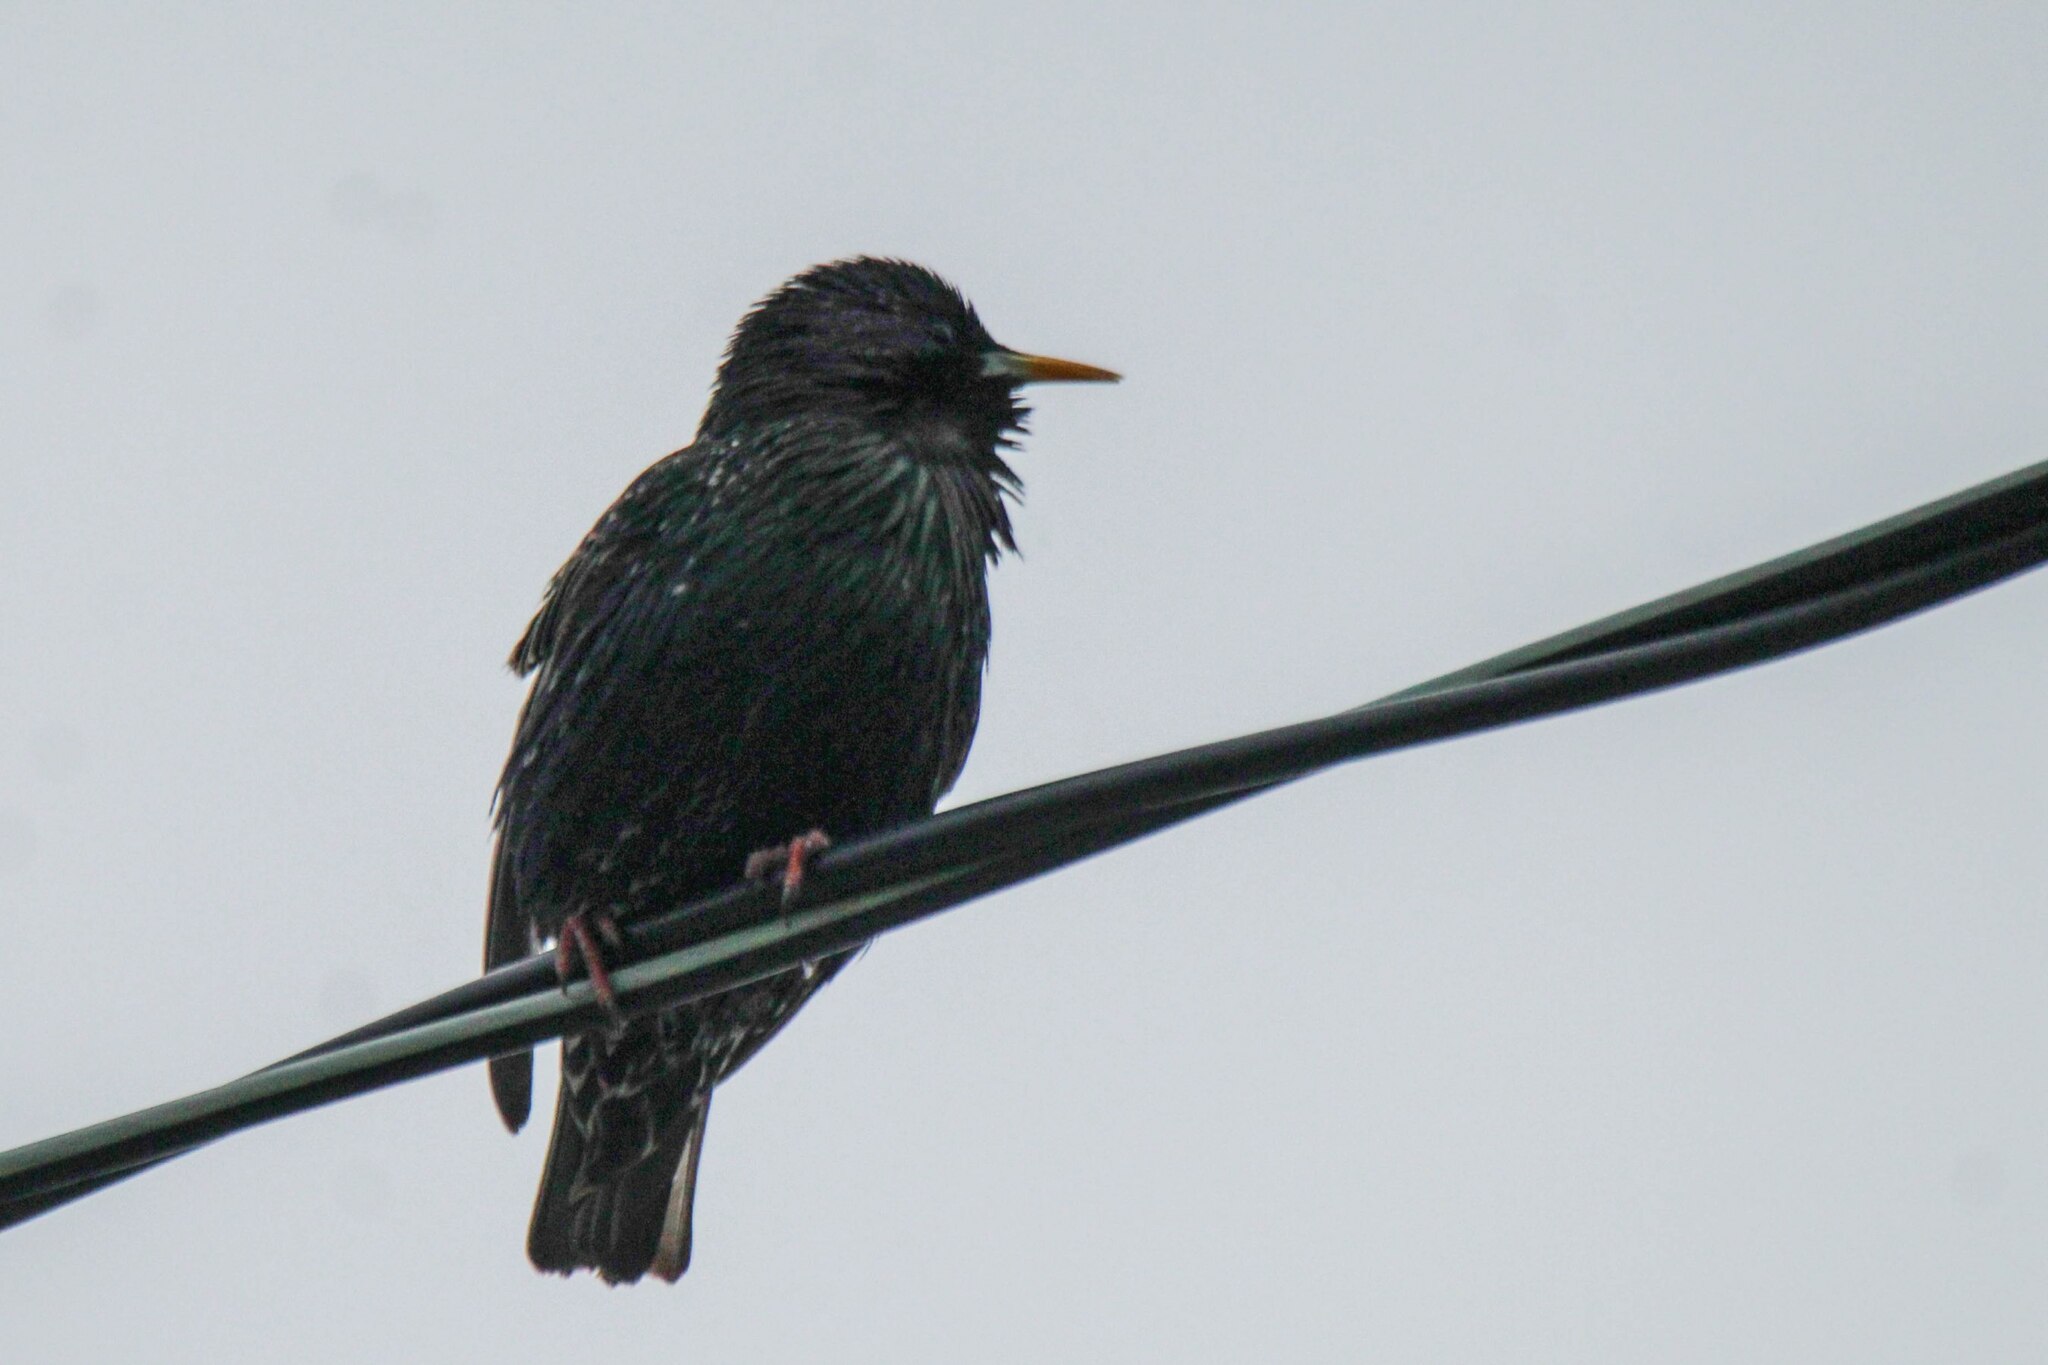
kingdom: Animalia
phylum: Chordata
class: Aves
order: Passeriformes
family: Sturnidae
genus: Sturnus
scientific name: Sturnus vulgaris
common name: Common starling
